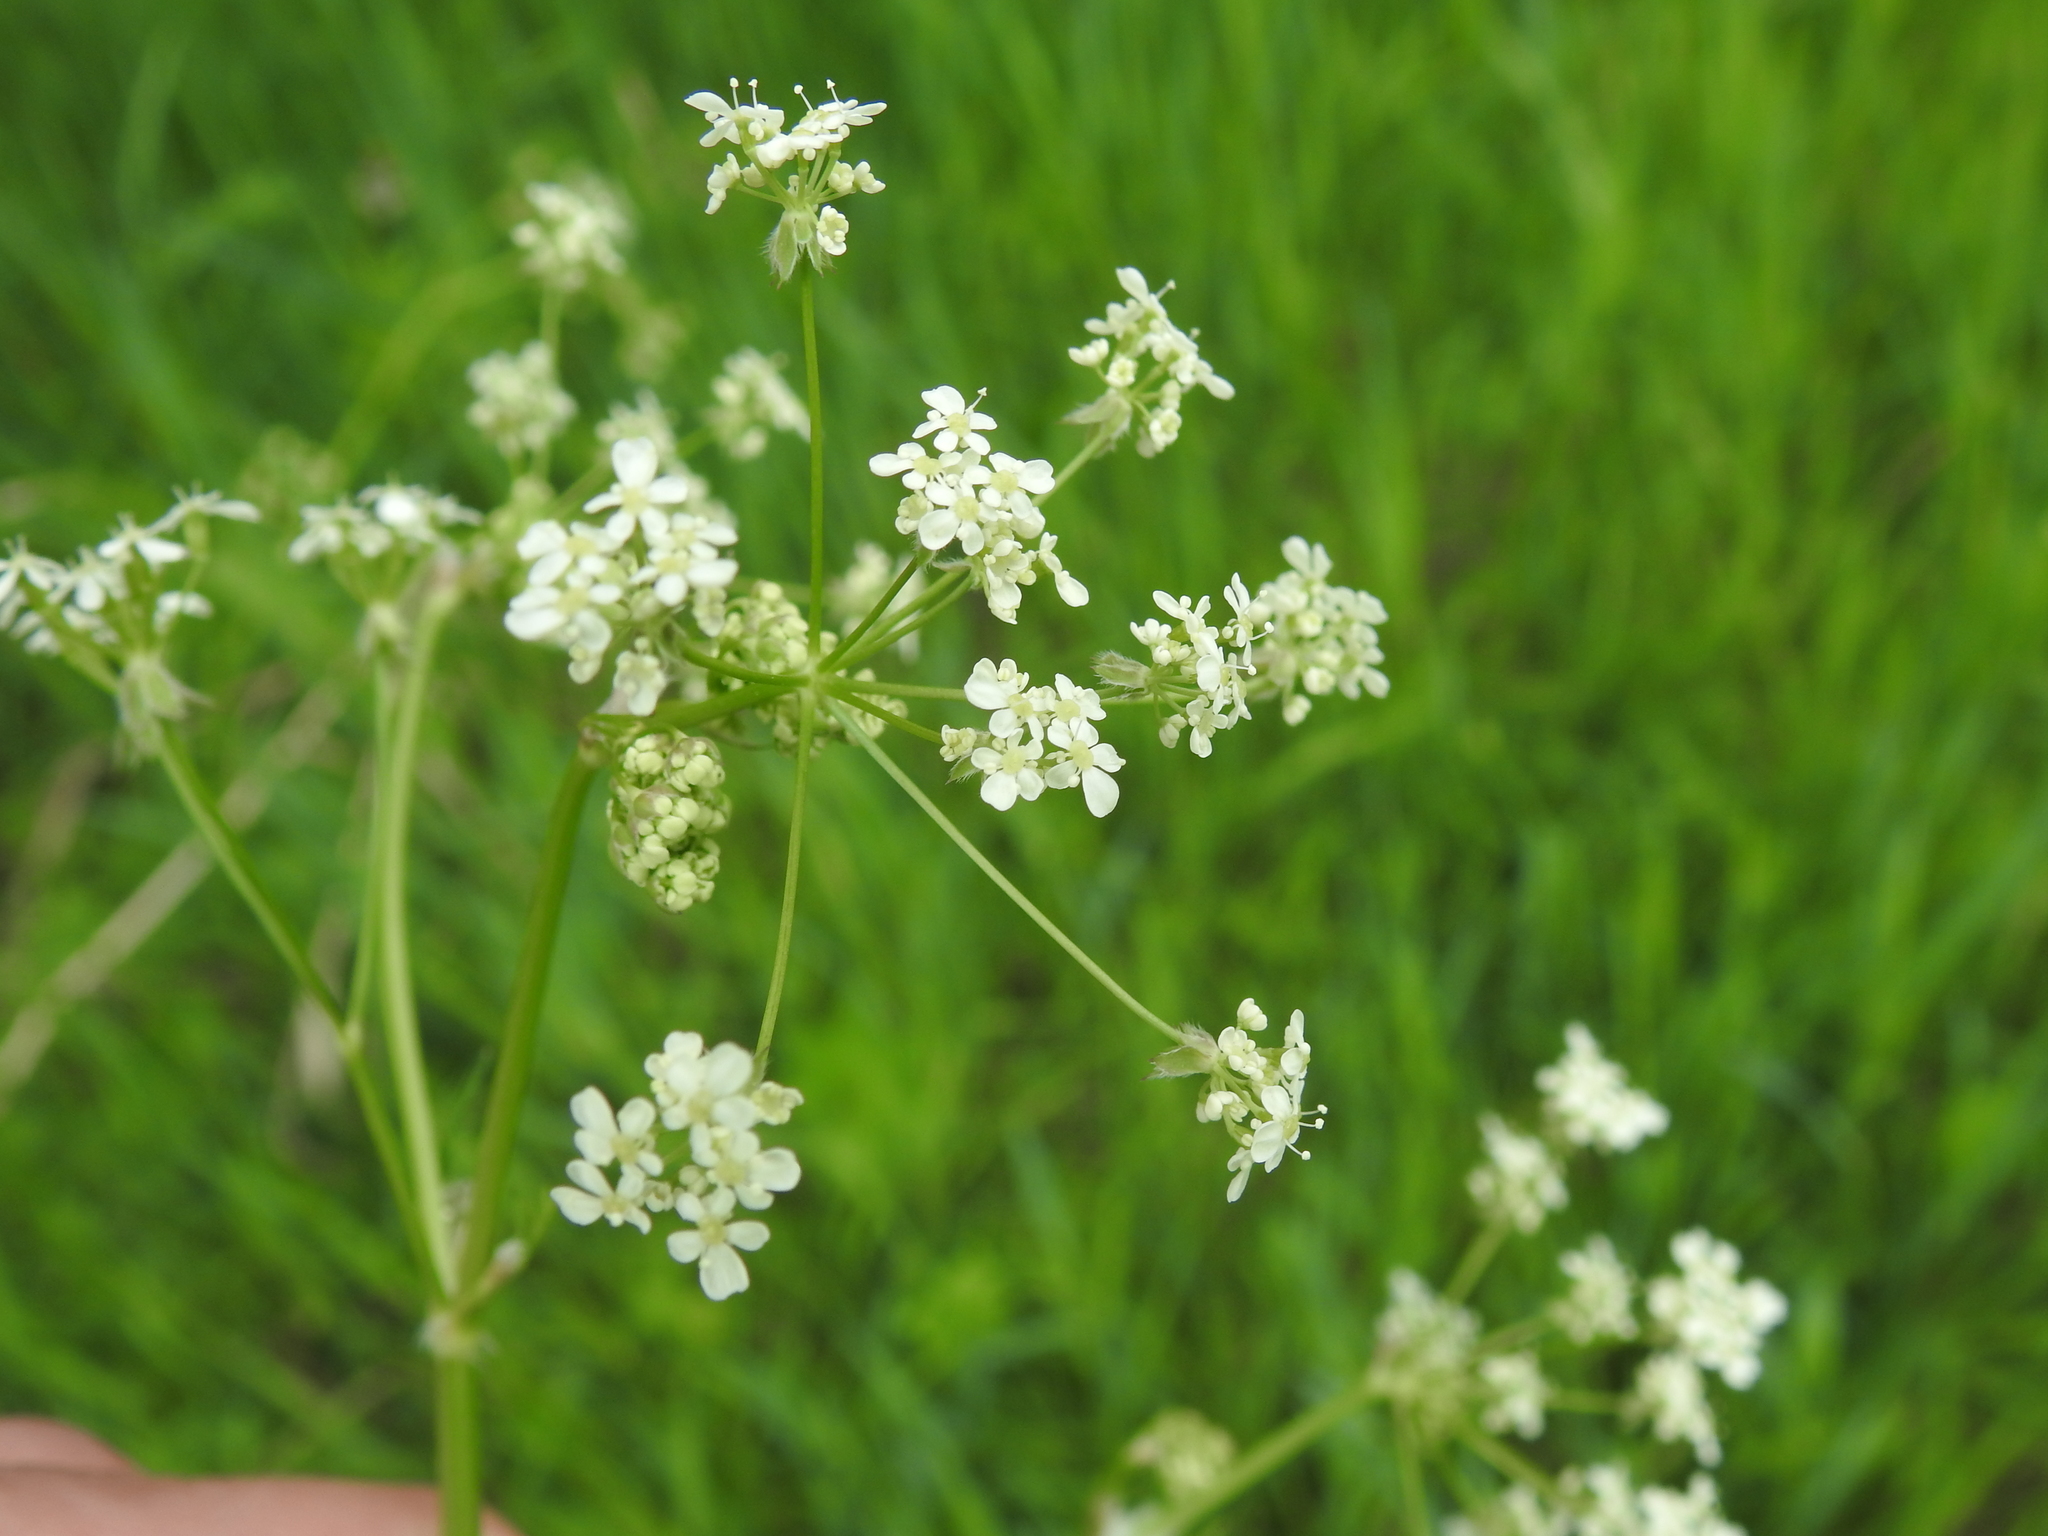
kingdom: Plantae
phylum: Tracheophyta
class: Magnoliopsida
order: Apiales
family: Apiaceae
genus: Anthriscus
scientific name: Anthriscus sylvestris
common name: Cow parsley
